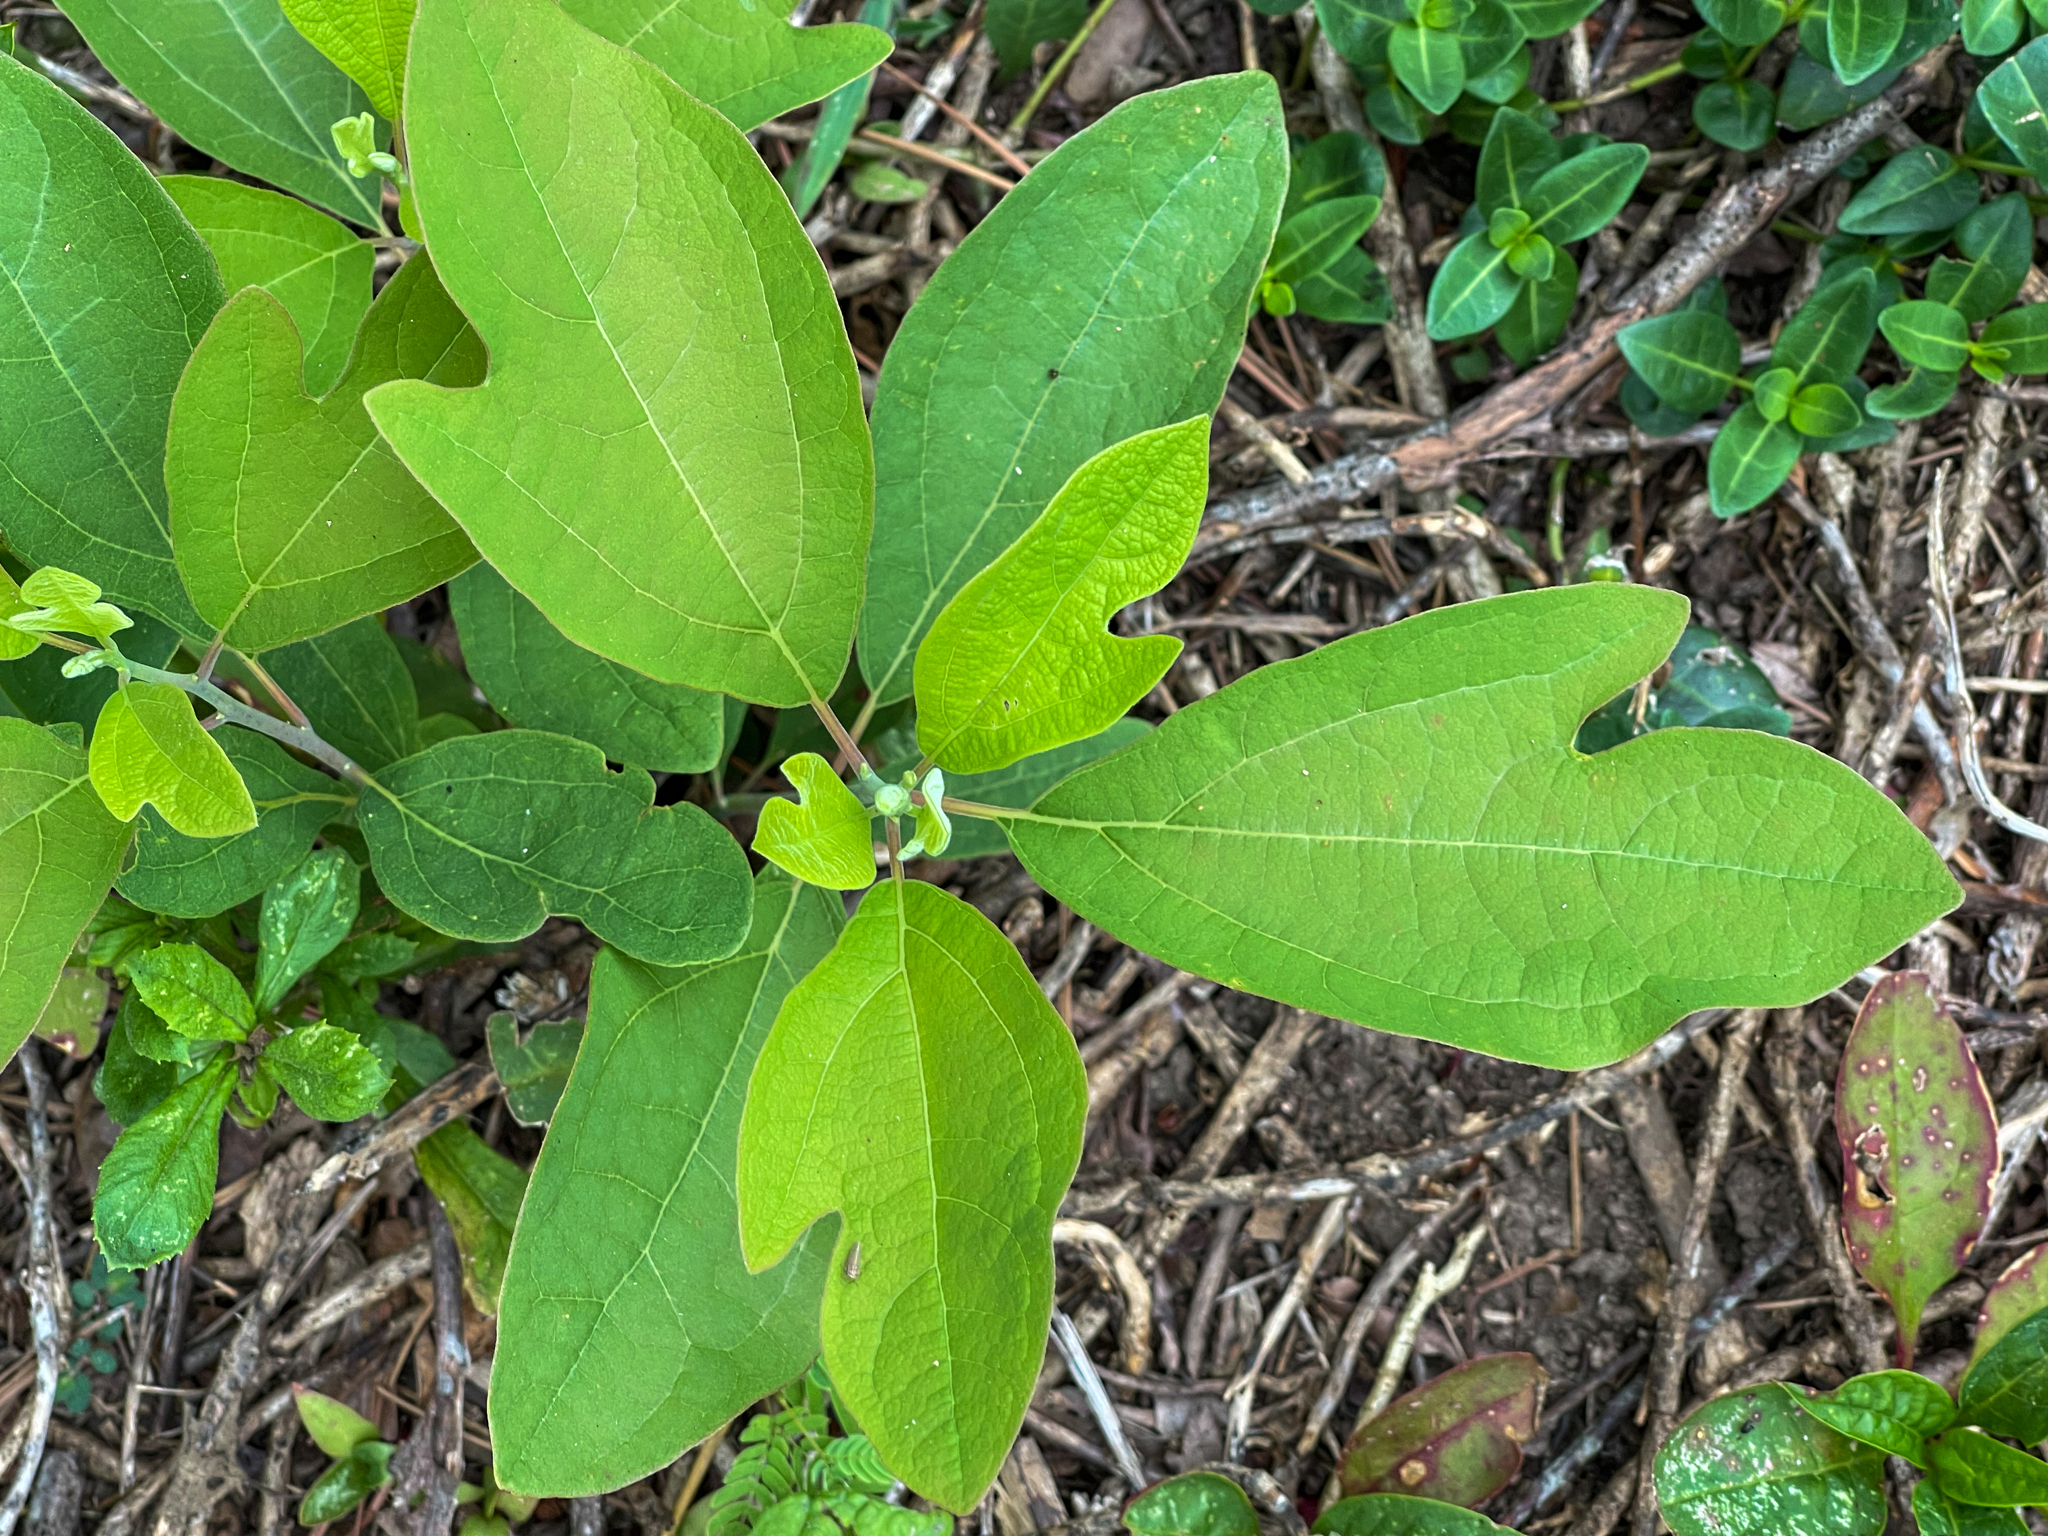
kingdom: Plantae
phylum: Tracheophyta
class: Magnoliopsida
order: Laurales
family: Lauraceae
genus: Sassafras
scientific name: Sassafras albidum
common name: Sassafras
